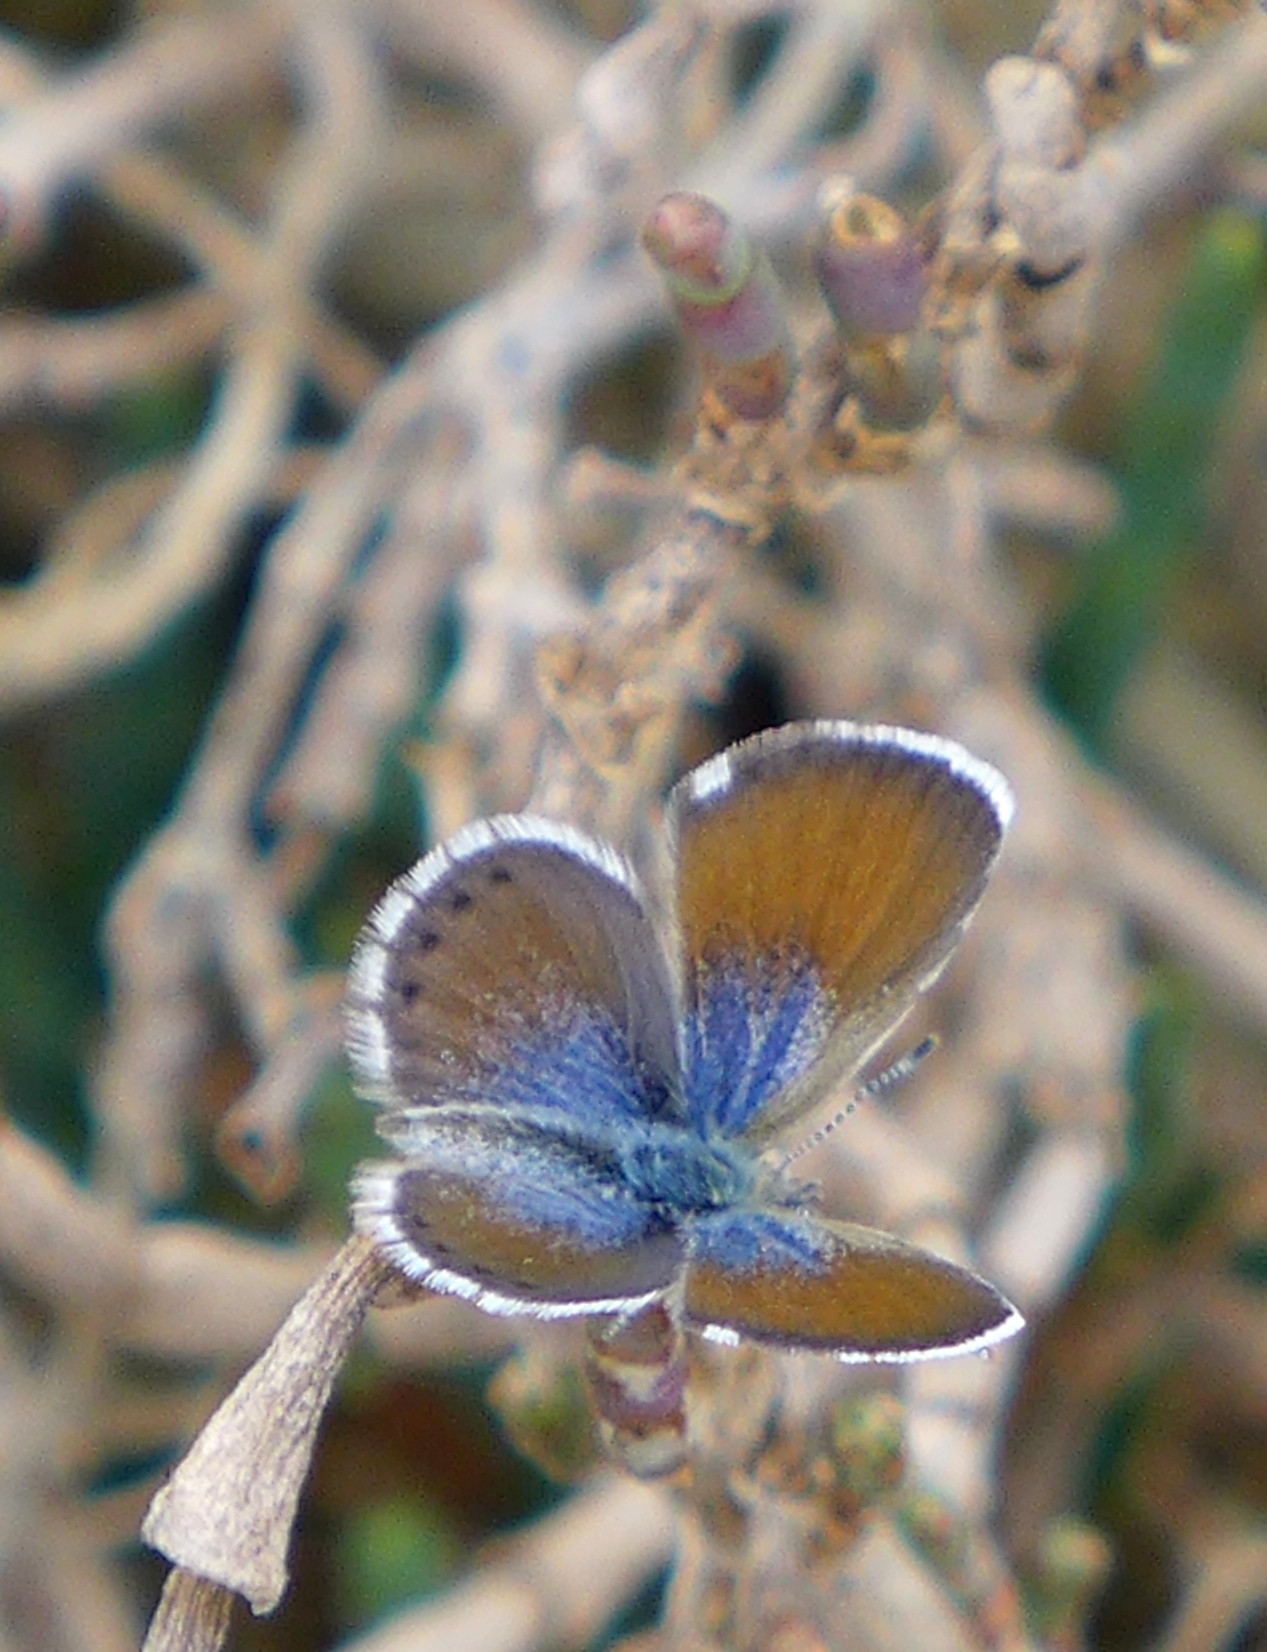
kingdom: Animalia
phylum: Arthropoda
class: Insecta
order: Lepidoptera
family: Lycaenidae
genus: Brephidium
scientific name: Brephidium exilis
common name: Pygmy blue
